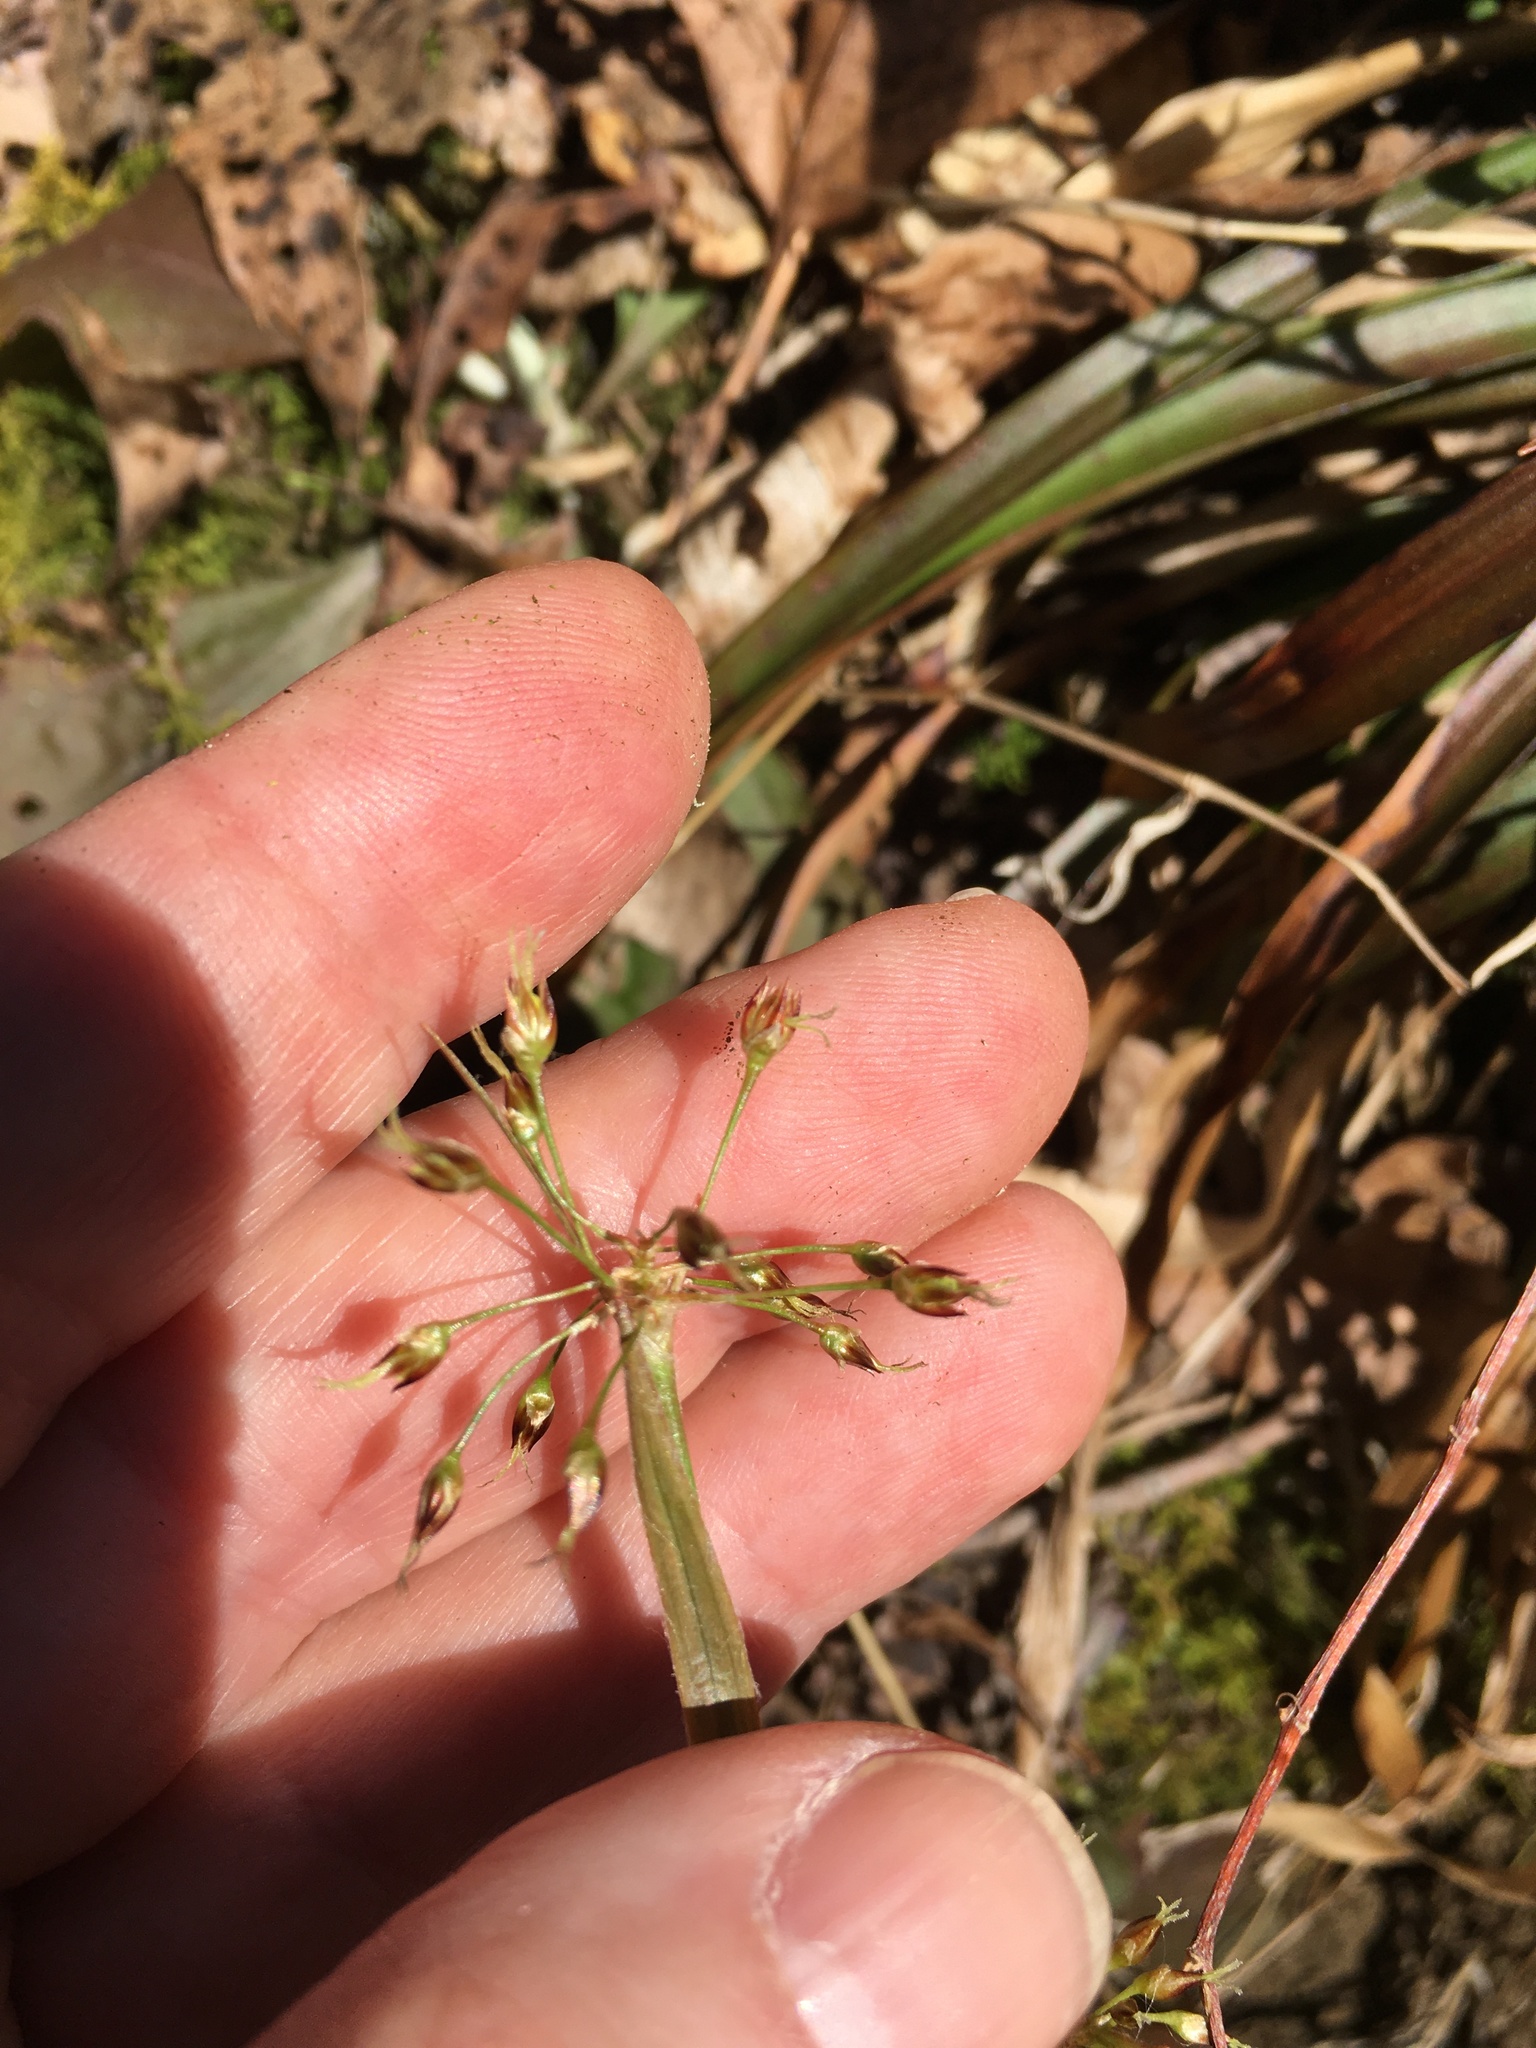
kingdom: Plantae
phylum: Tracheophyta
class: Liliopsida
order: Poales
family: Juncaceae
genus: Luzula
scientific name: Luzula acuminata
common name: Hairy woodrush
